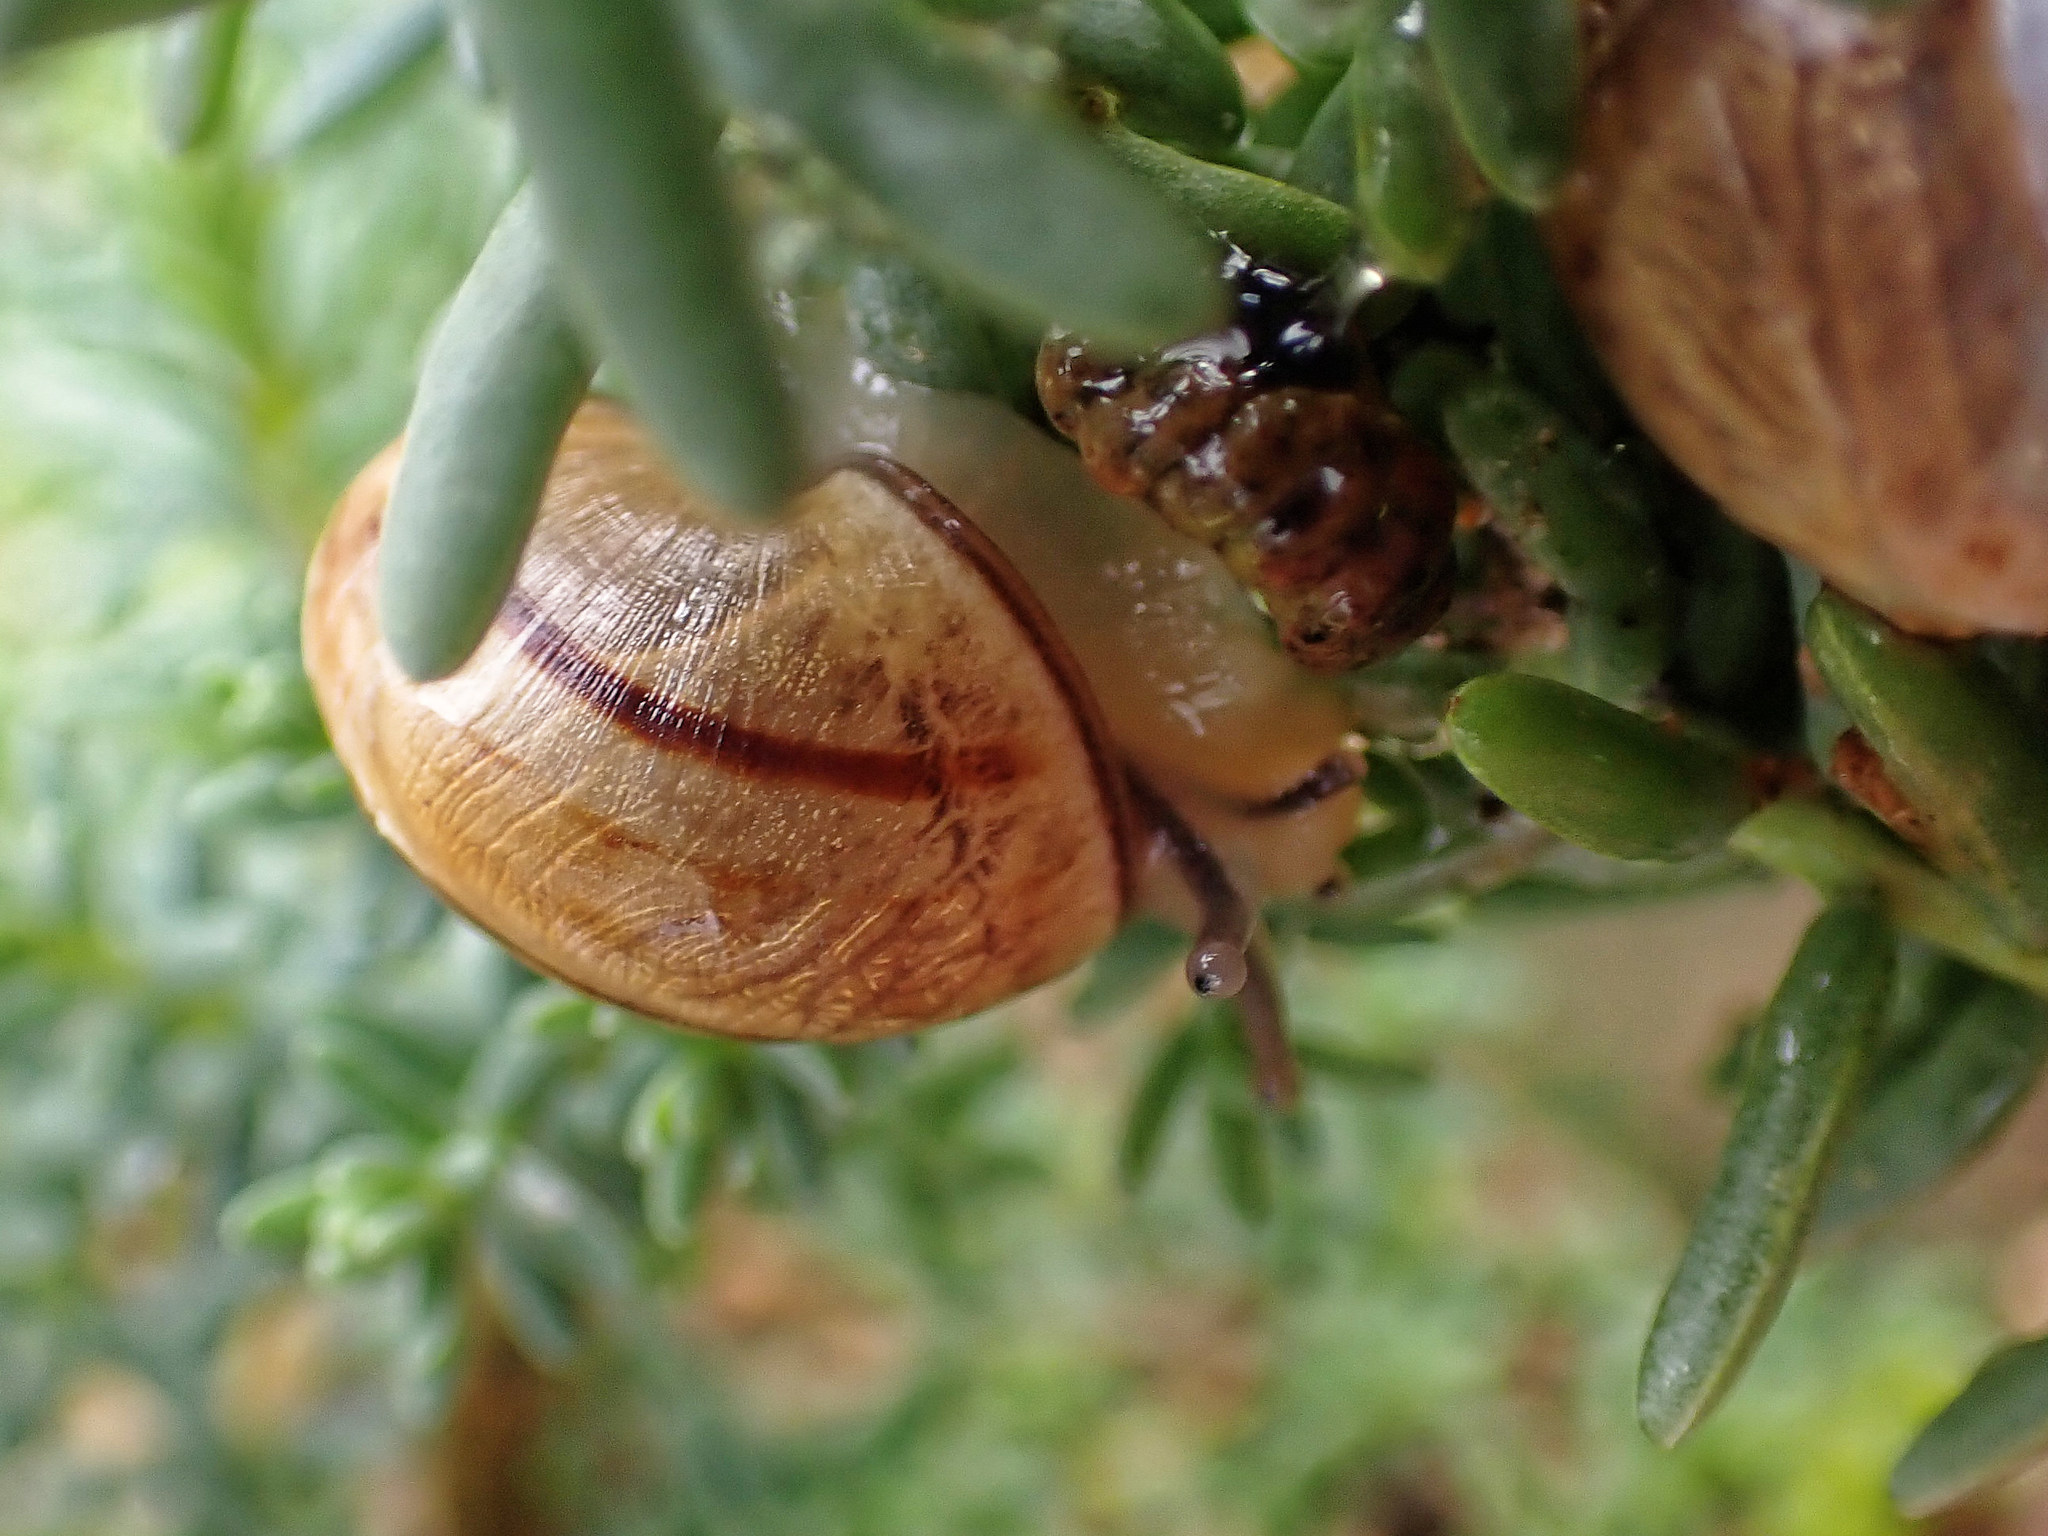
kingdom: Animalia
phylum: Mollusca
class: Gastropoda
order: Stylommatophora
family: Helicidae
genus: Theba
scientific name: Theba pisana
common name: White snail
